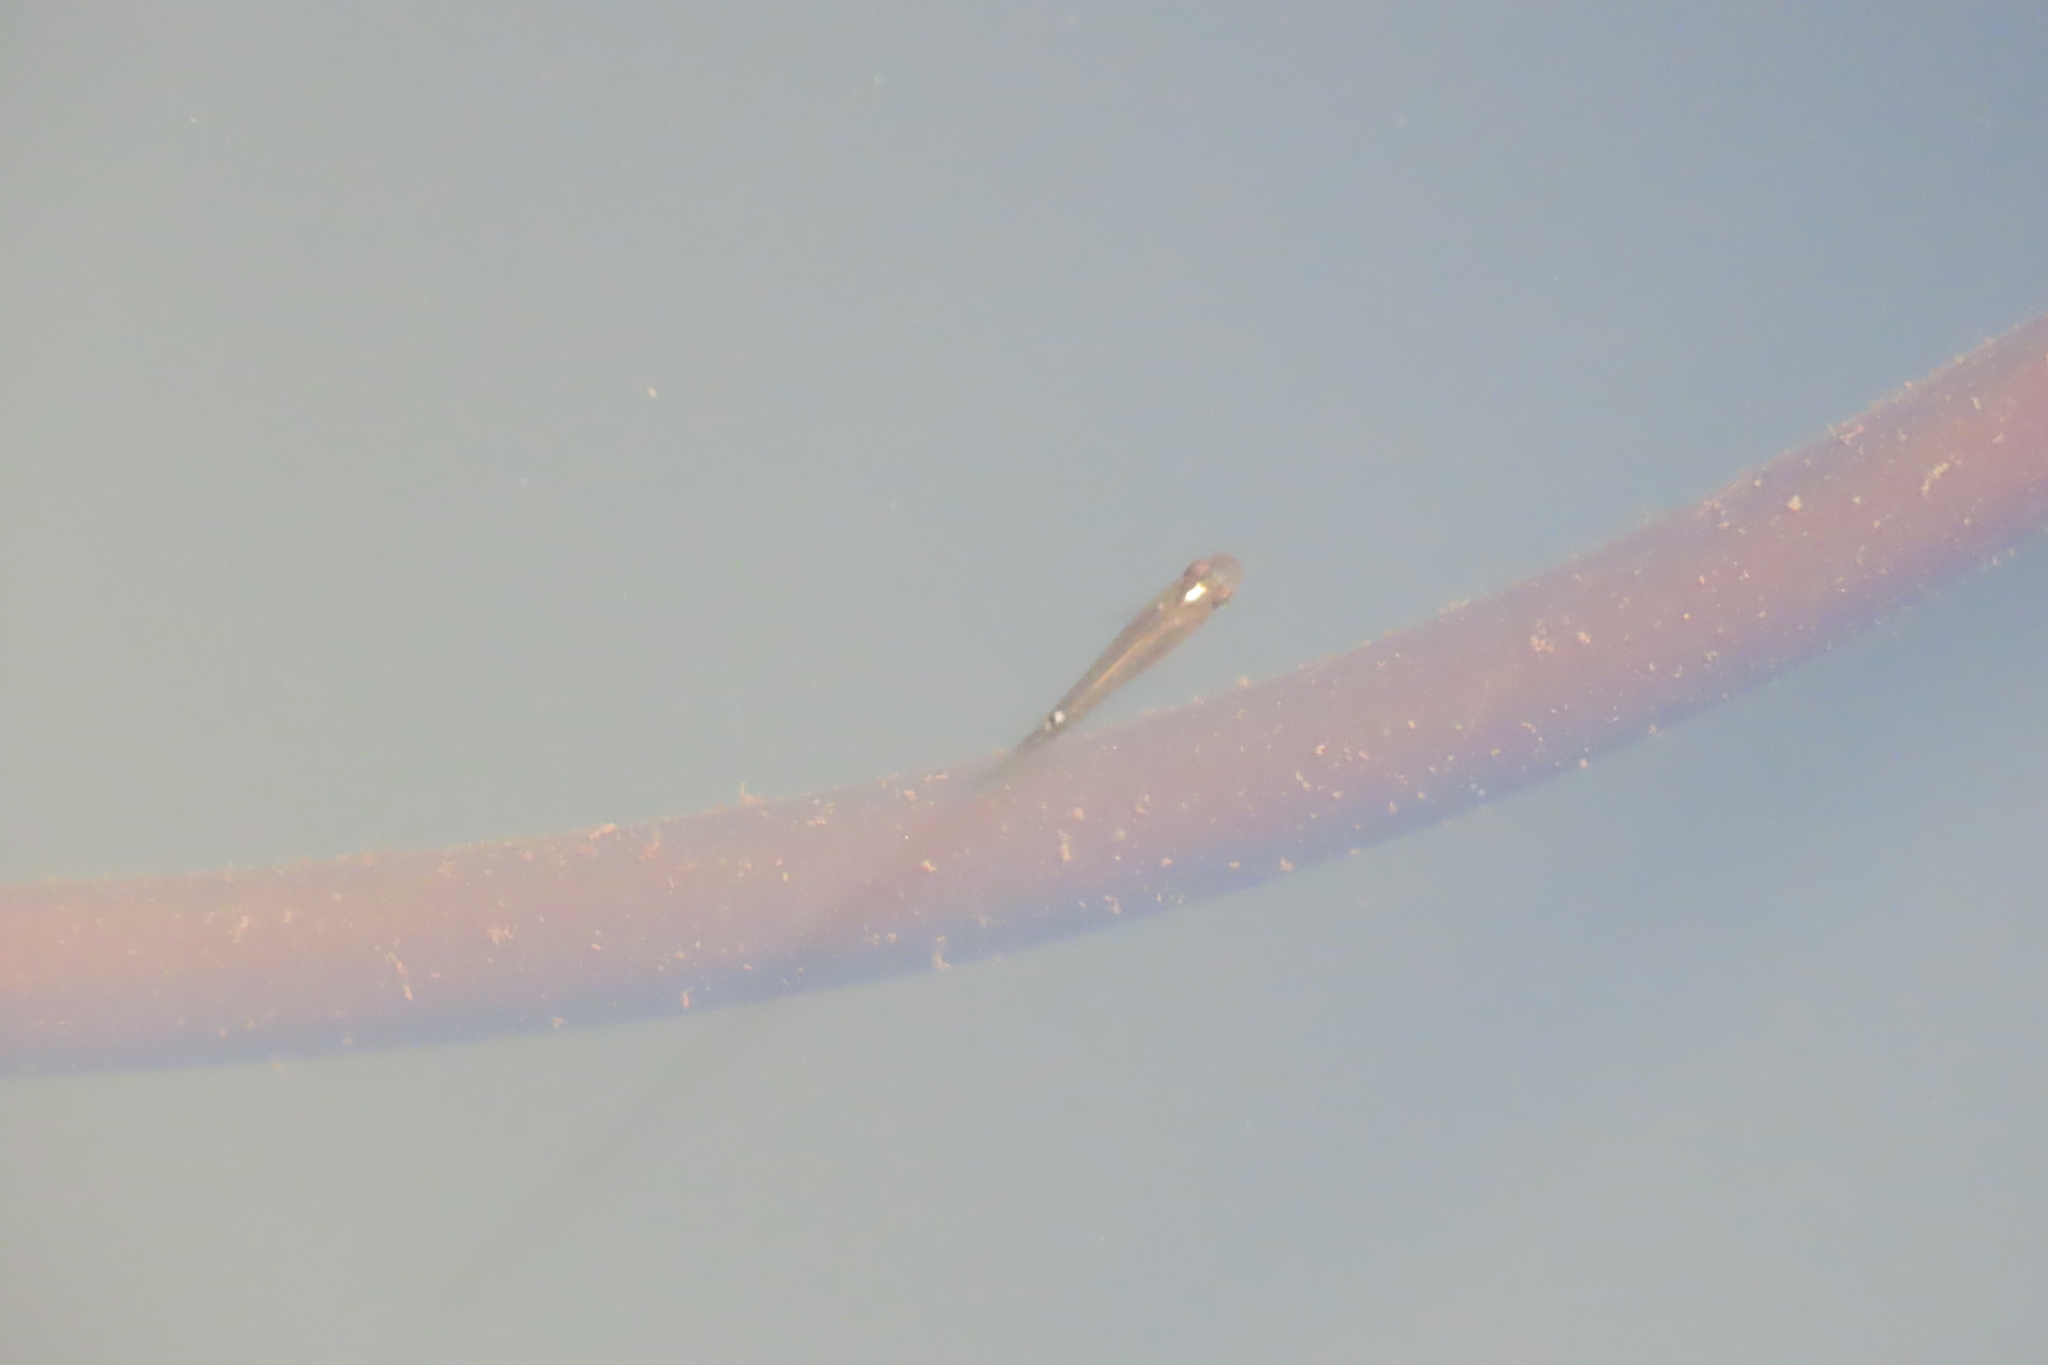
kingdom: Animalia
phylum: Chordata
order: Cyprinodontiformes
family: Aplocheilidae
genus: Aplocheilus
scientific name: Aplocheilus lineatus
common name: Striped panchax
